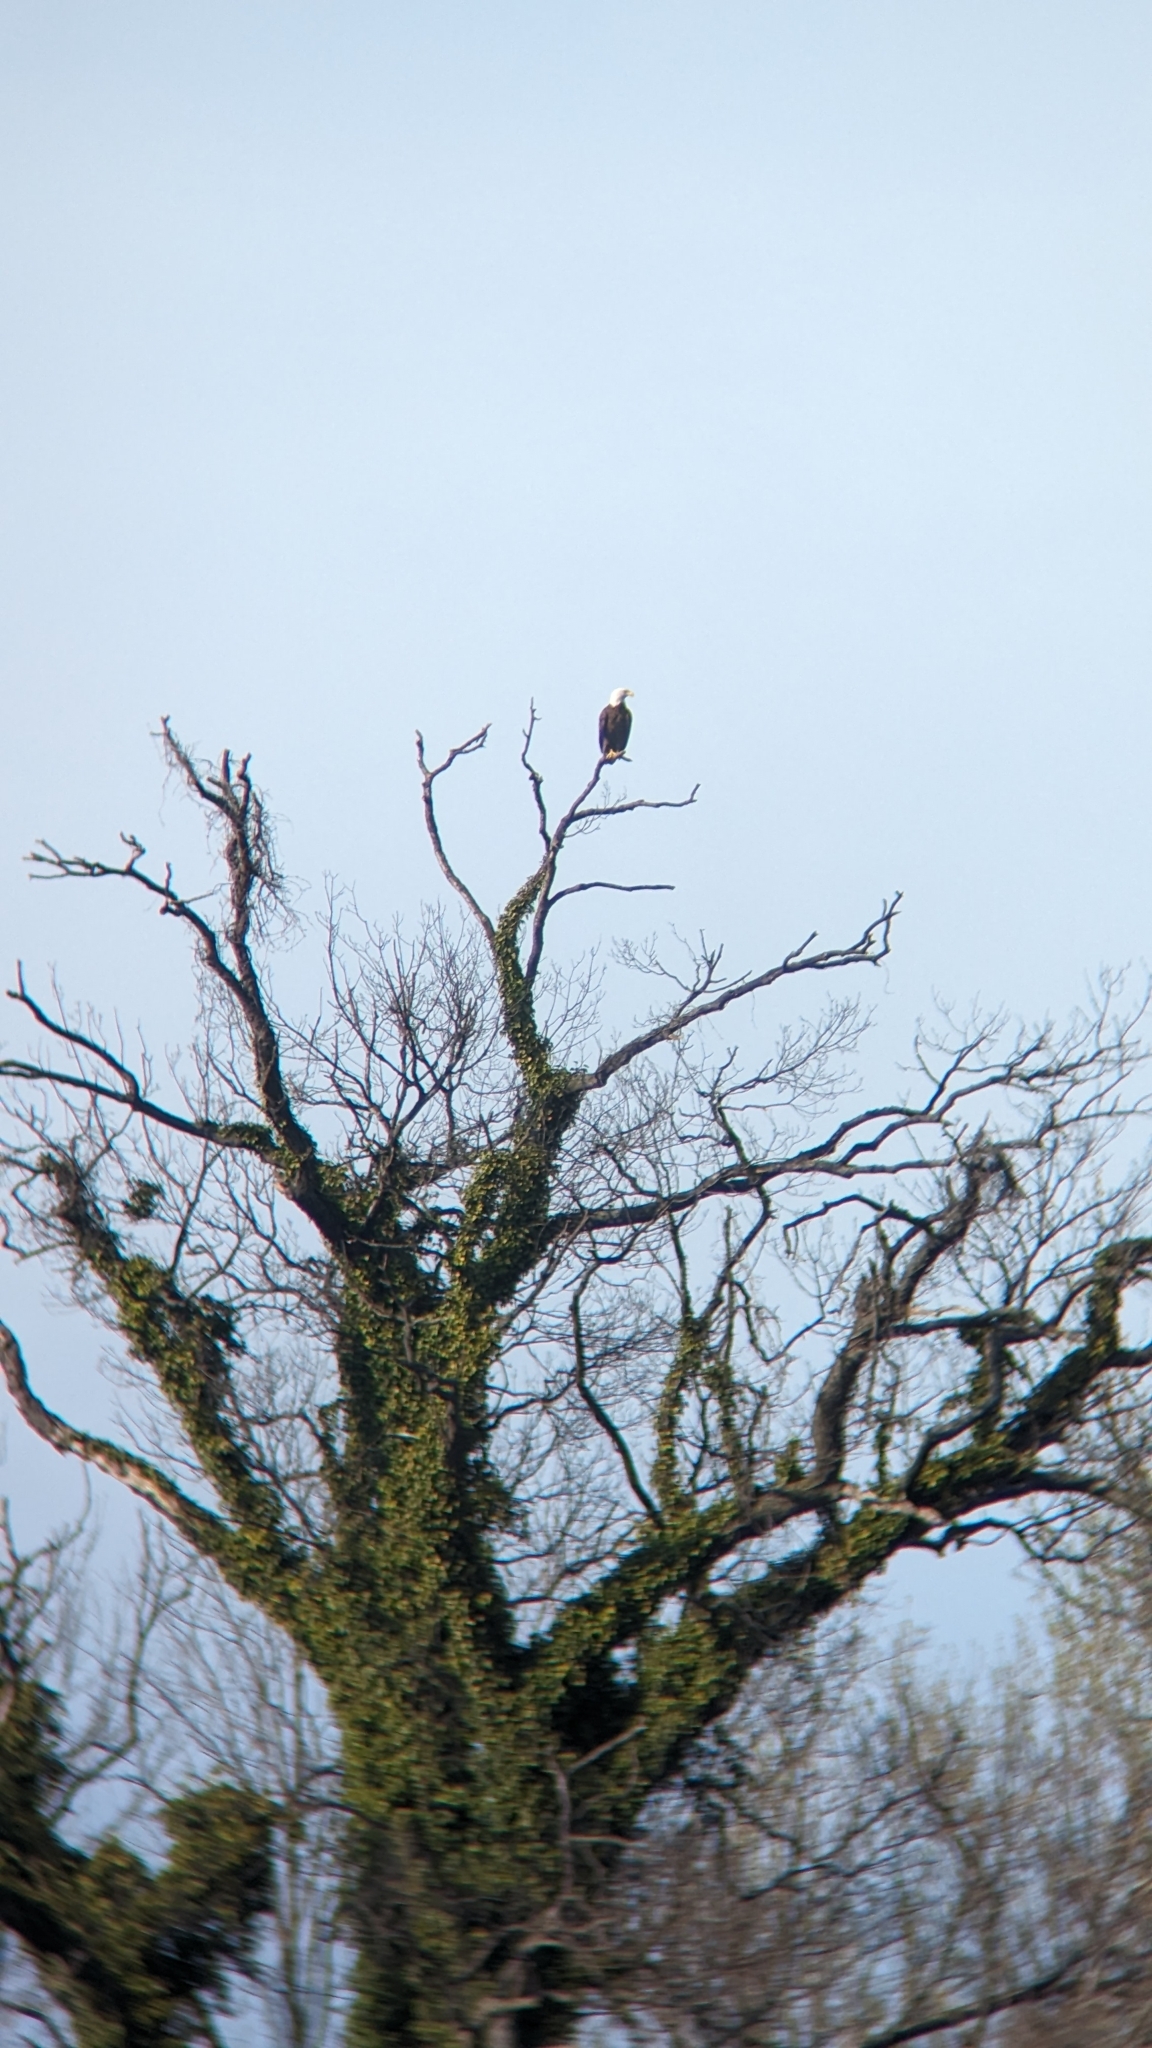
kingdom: Animalia
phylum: Chordata
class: Aves
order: Accipitriformes
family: Accipitridae
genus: Haliaeetus
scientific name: Haliaeetus leucocephalus
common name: Bald eagle
